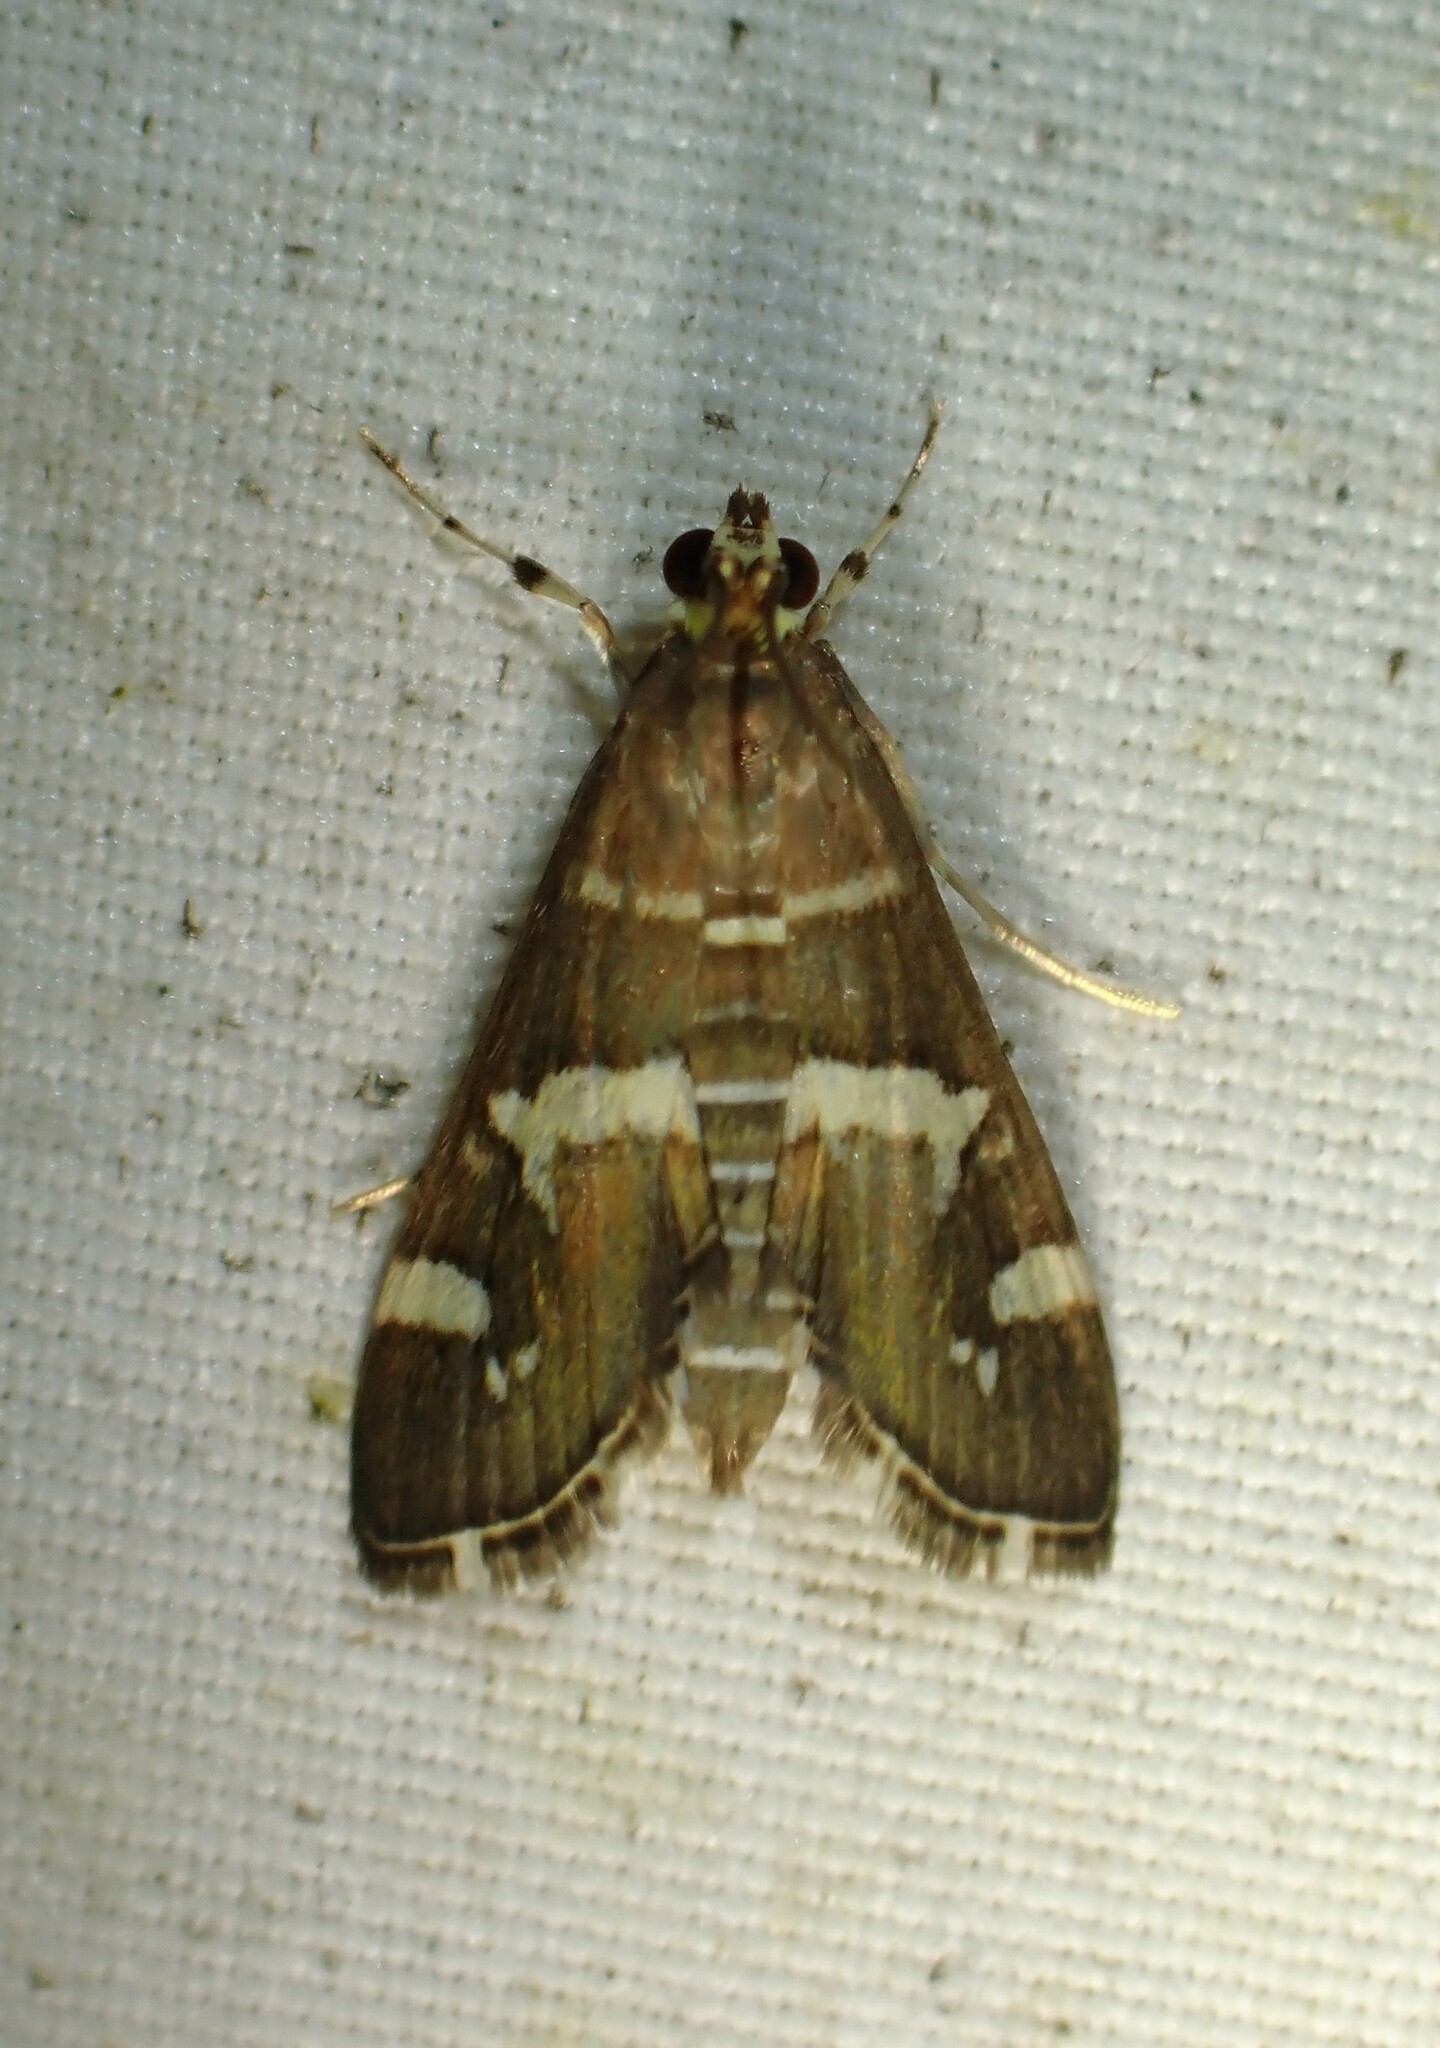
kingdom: Animalia
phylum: Arthropoda
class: Insecta
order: Lepidoptera
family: Crambidae
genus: Spoladea
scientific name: Spoladea recurvalis
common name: Beet webworm moth
